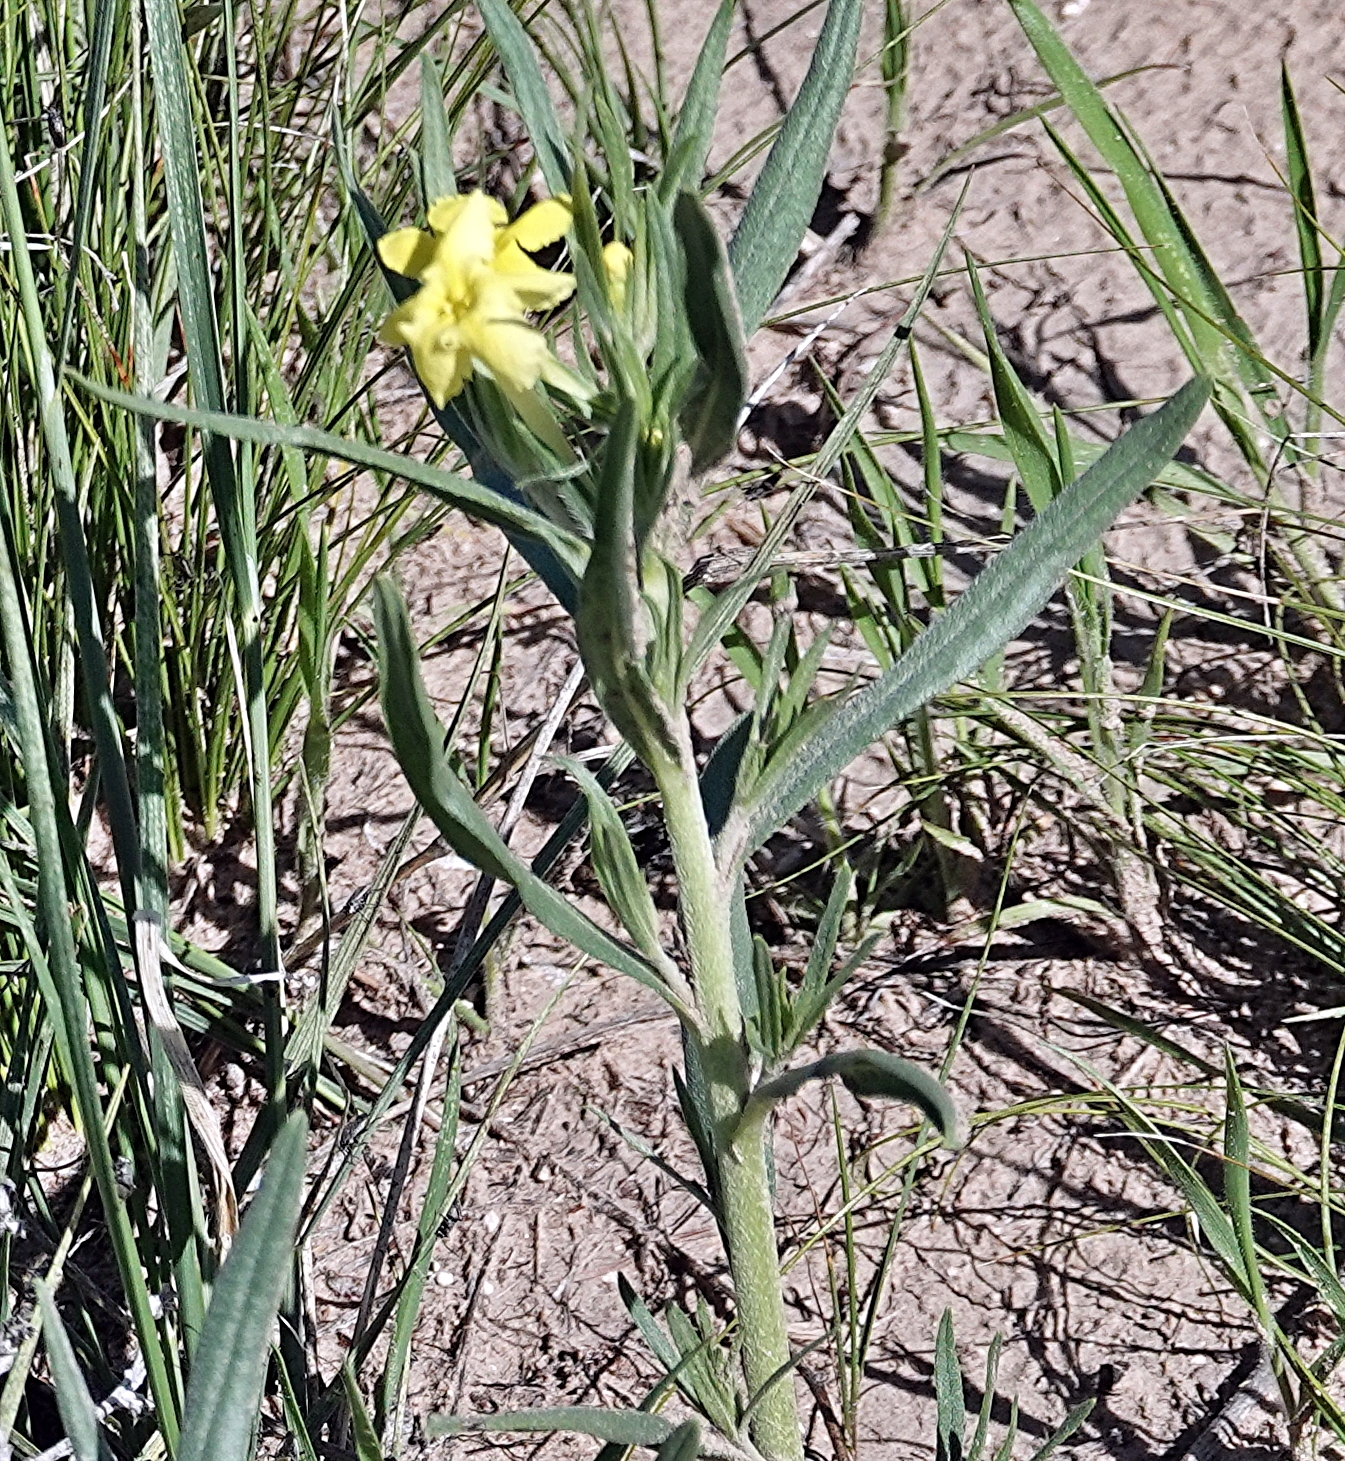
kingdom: Plantae
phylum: Tracheophyta
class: Magnoliopsida
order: Boraginales
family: Boraginaceae
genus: Lithospermum
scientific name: Lithospermum incisum
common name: Fringed gromwell
